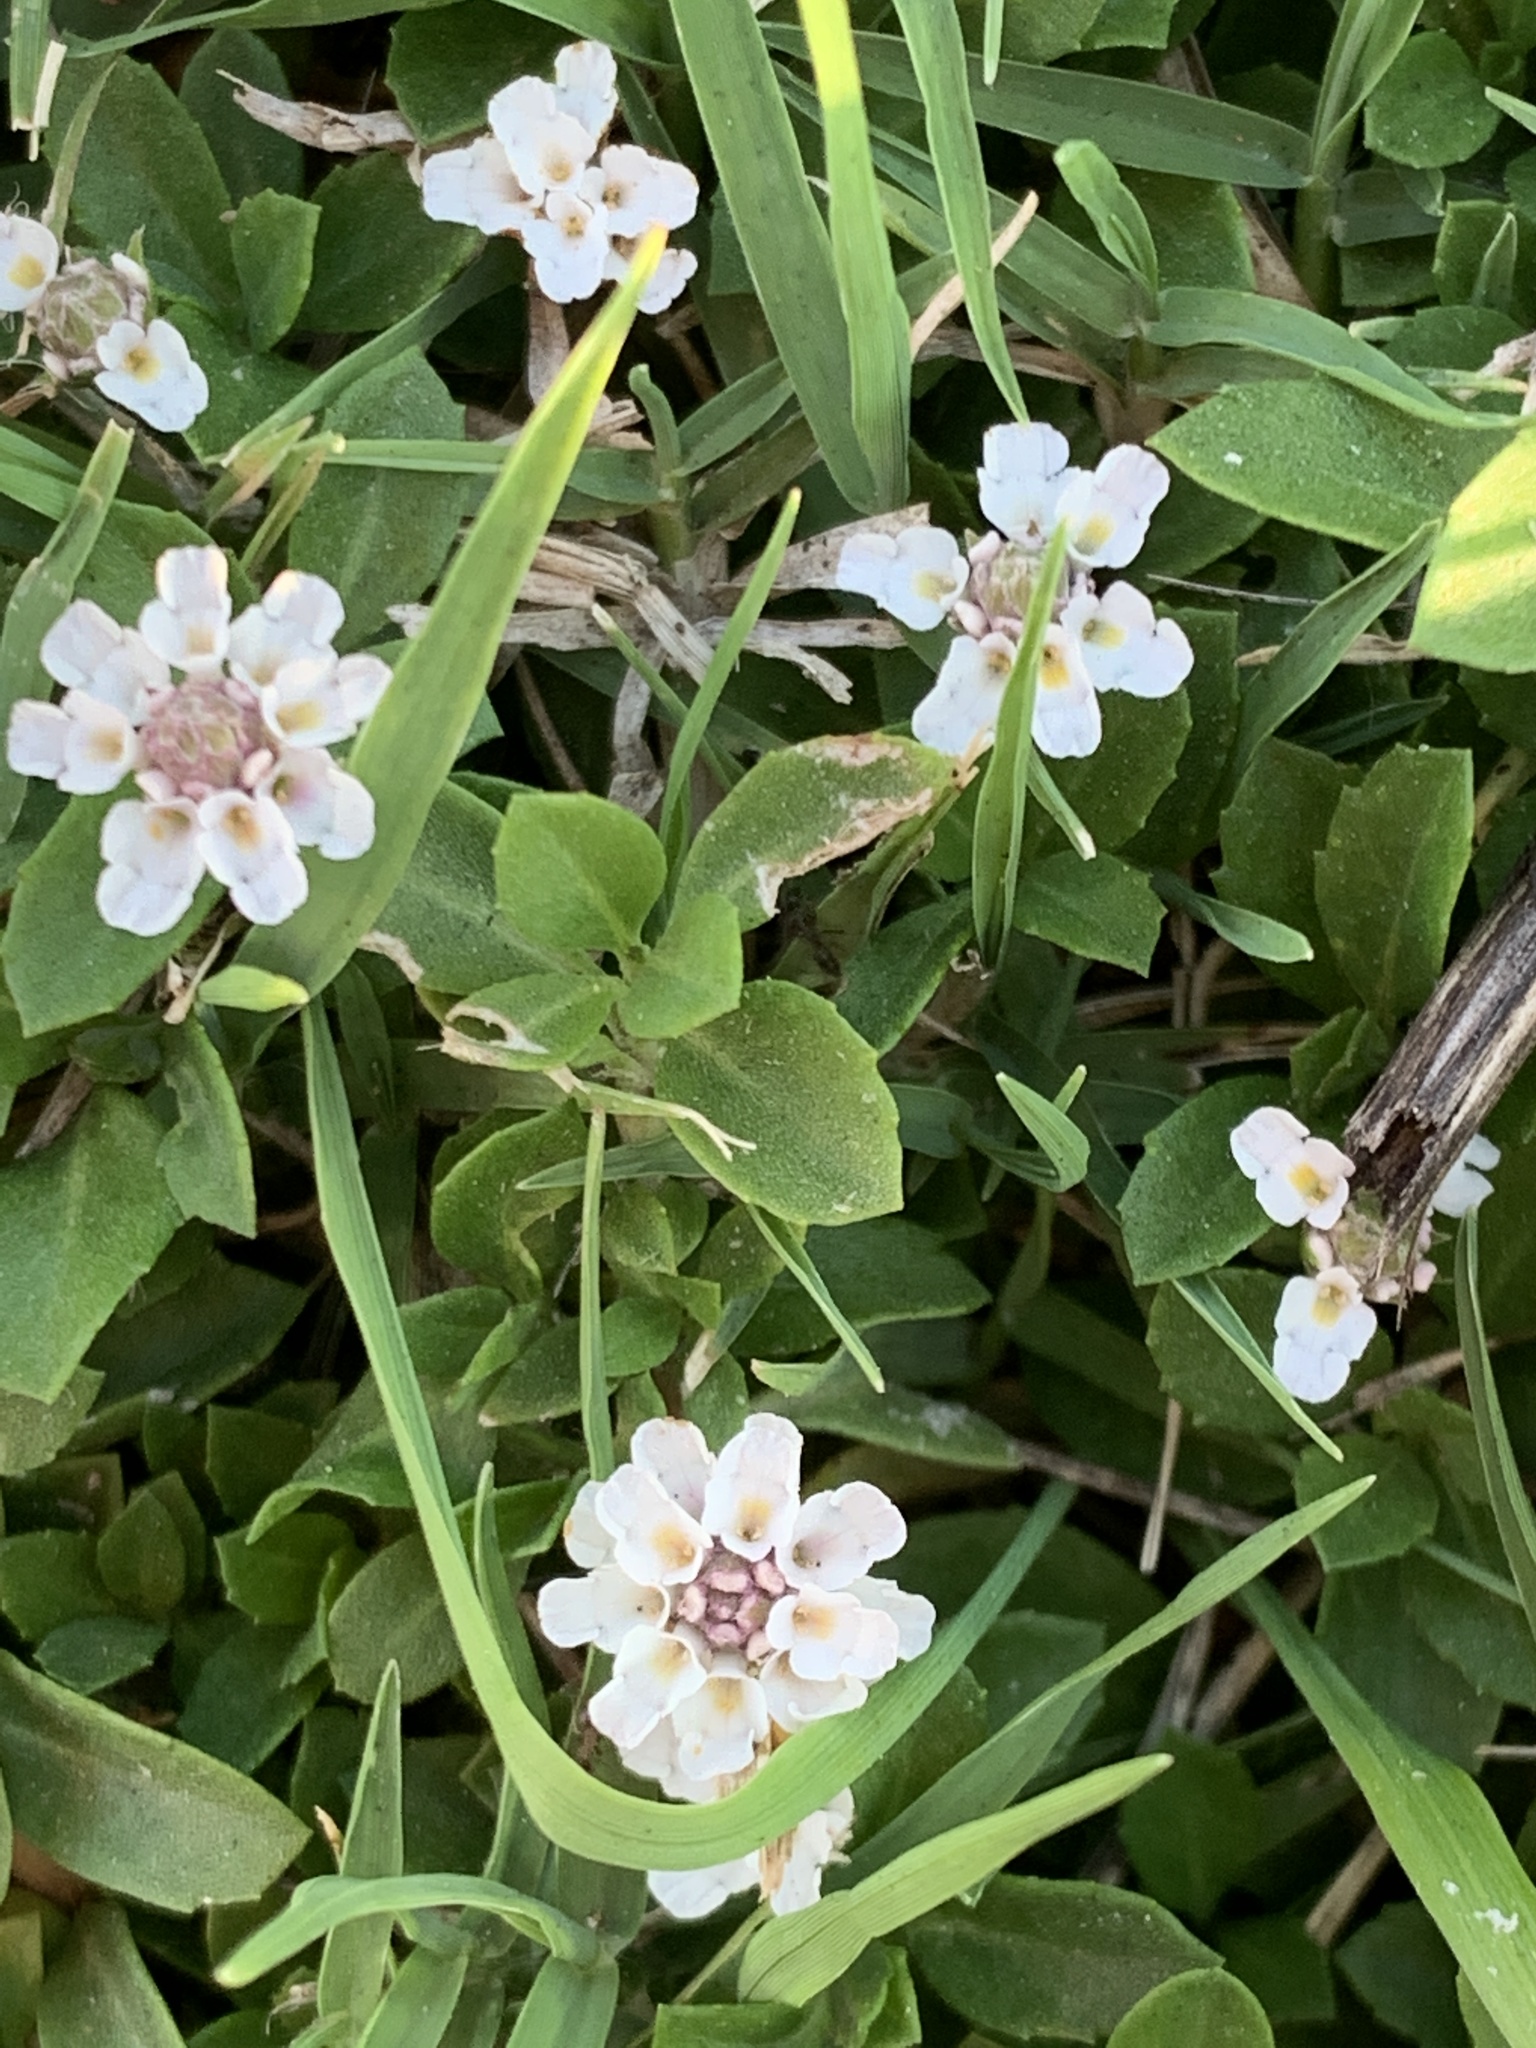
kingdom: Plantae
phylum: Tracheophyta
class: Magnoliopsida
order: Lamiales
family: Verbenaceae
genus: Phyla
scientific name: Phyla nodiflora
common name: Frogfruit
